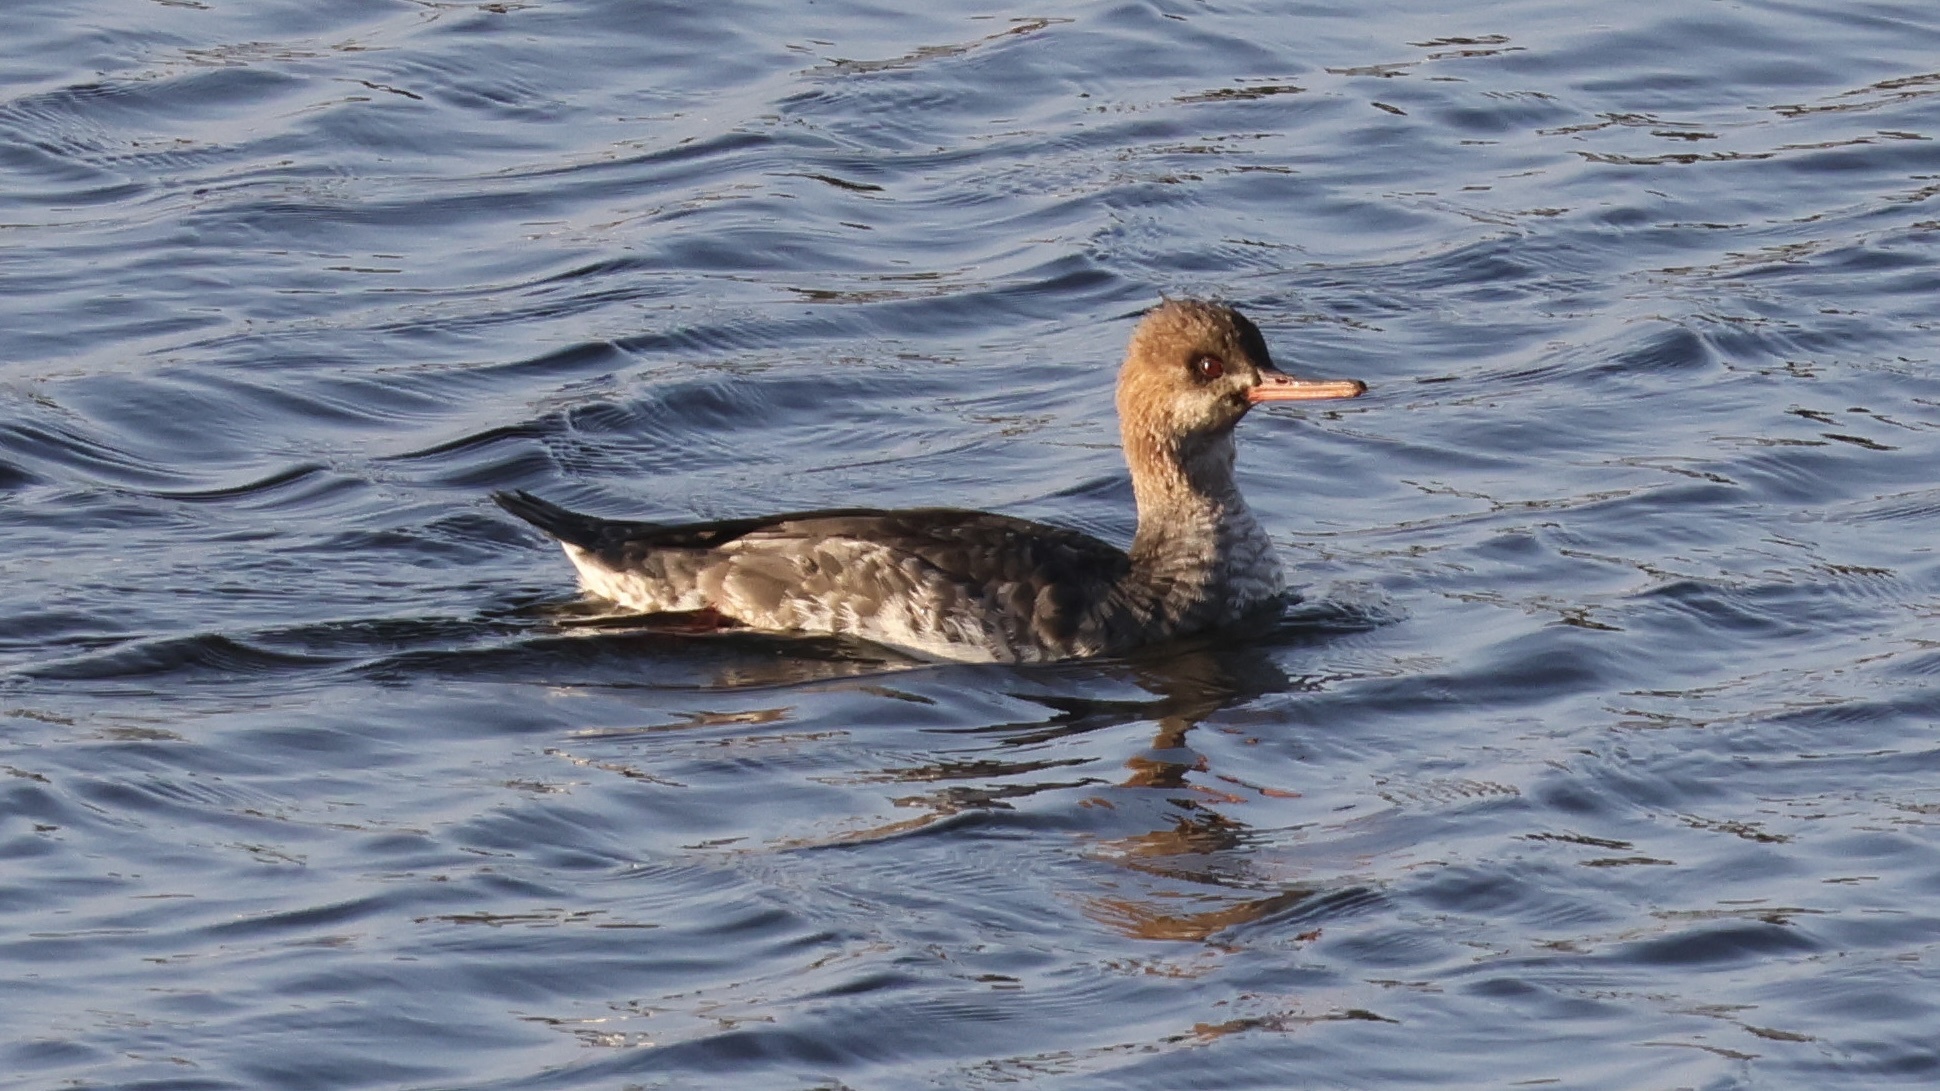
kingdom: Animalia
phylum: Chordata
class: Aves
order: Anseriformes
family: Anatidae
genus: Mergus
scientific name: Mergus serrator
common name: Red-breasted merganser
